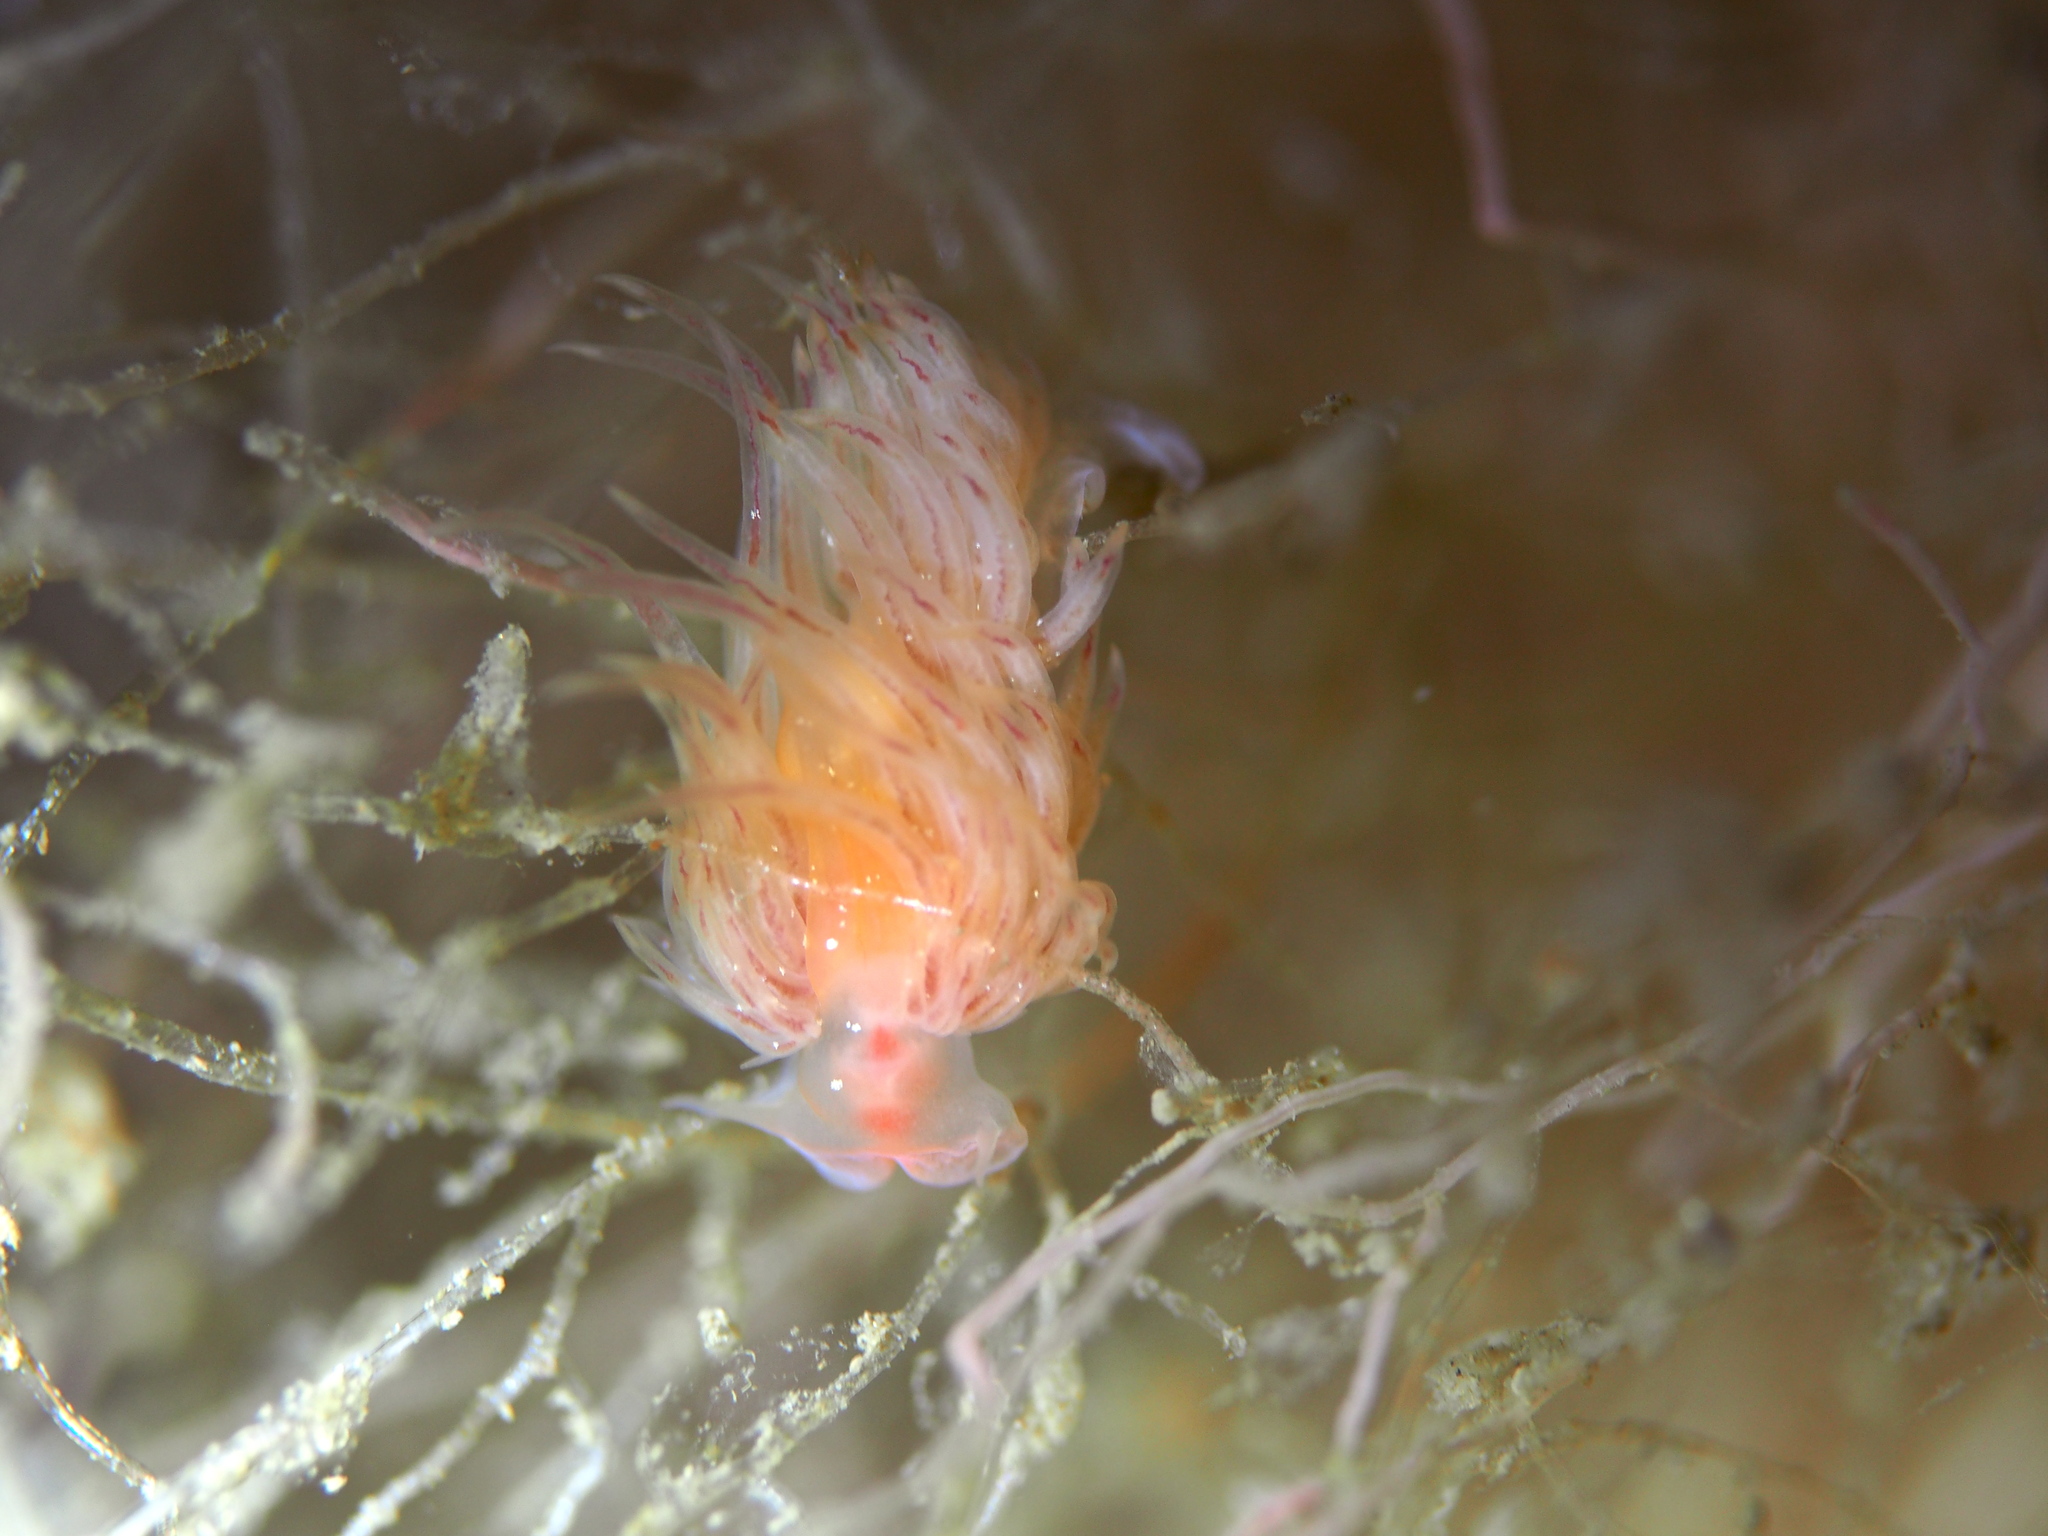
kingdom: Animalia
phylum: Mollusca
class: Gastropoda
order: Nudibranchia
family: Cumanotidae
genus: Cumanotus
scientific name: Cumanotus beaumonti
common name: Polyp aeolis
